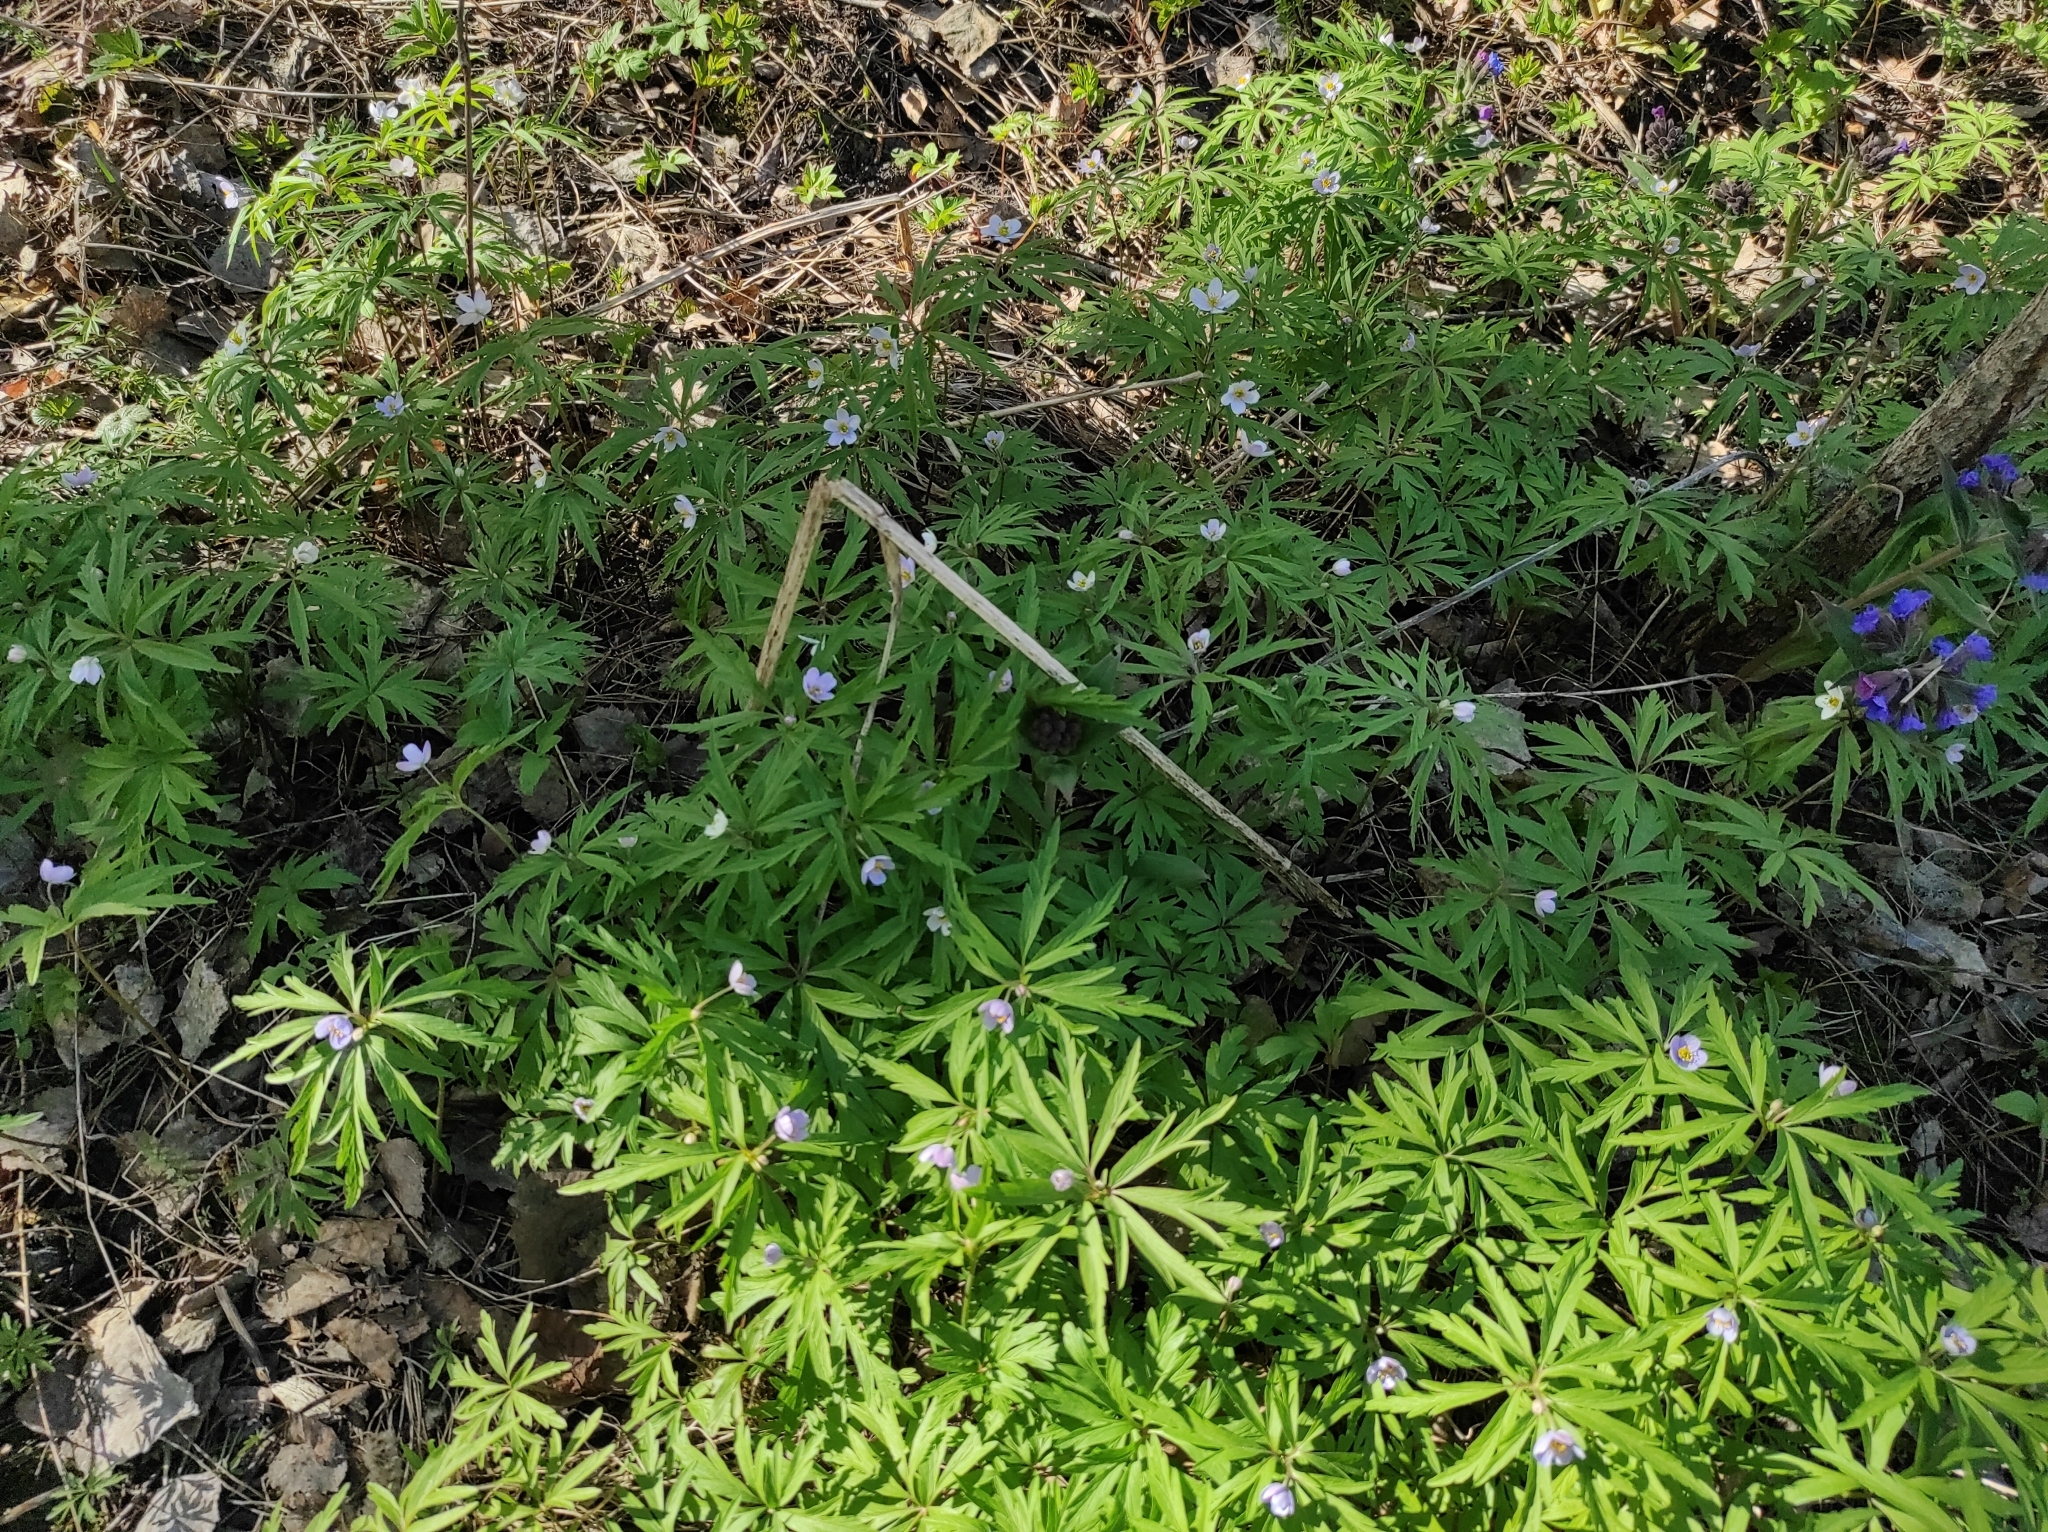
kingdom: Plantae
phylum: Tracheophyta
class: Magnoliopsida
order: Ranunculales
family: Ranunculaceae
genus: Anemone
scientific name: Anemone caerulea
